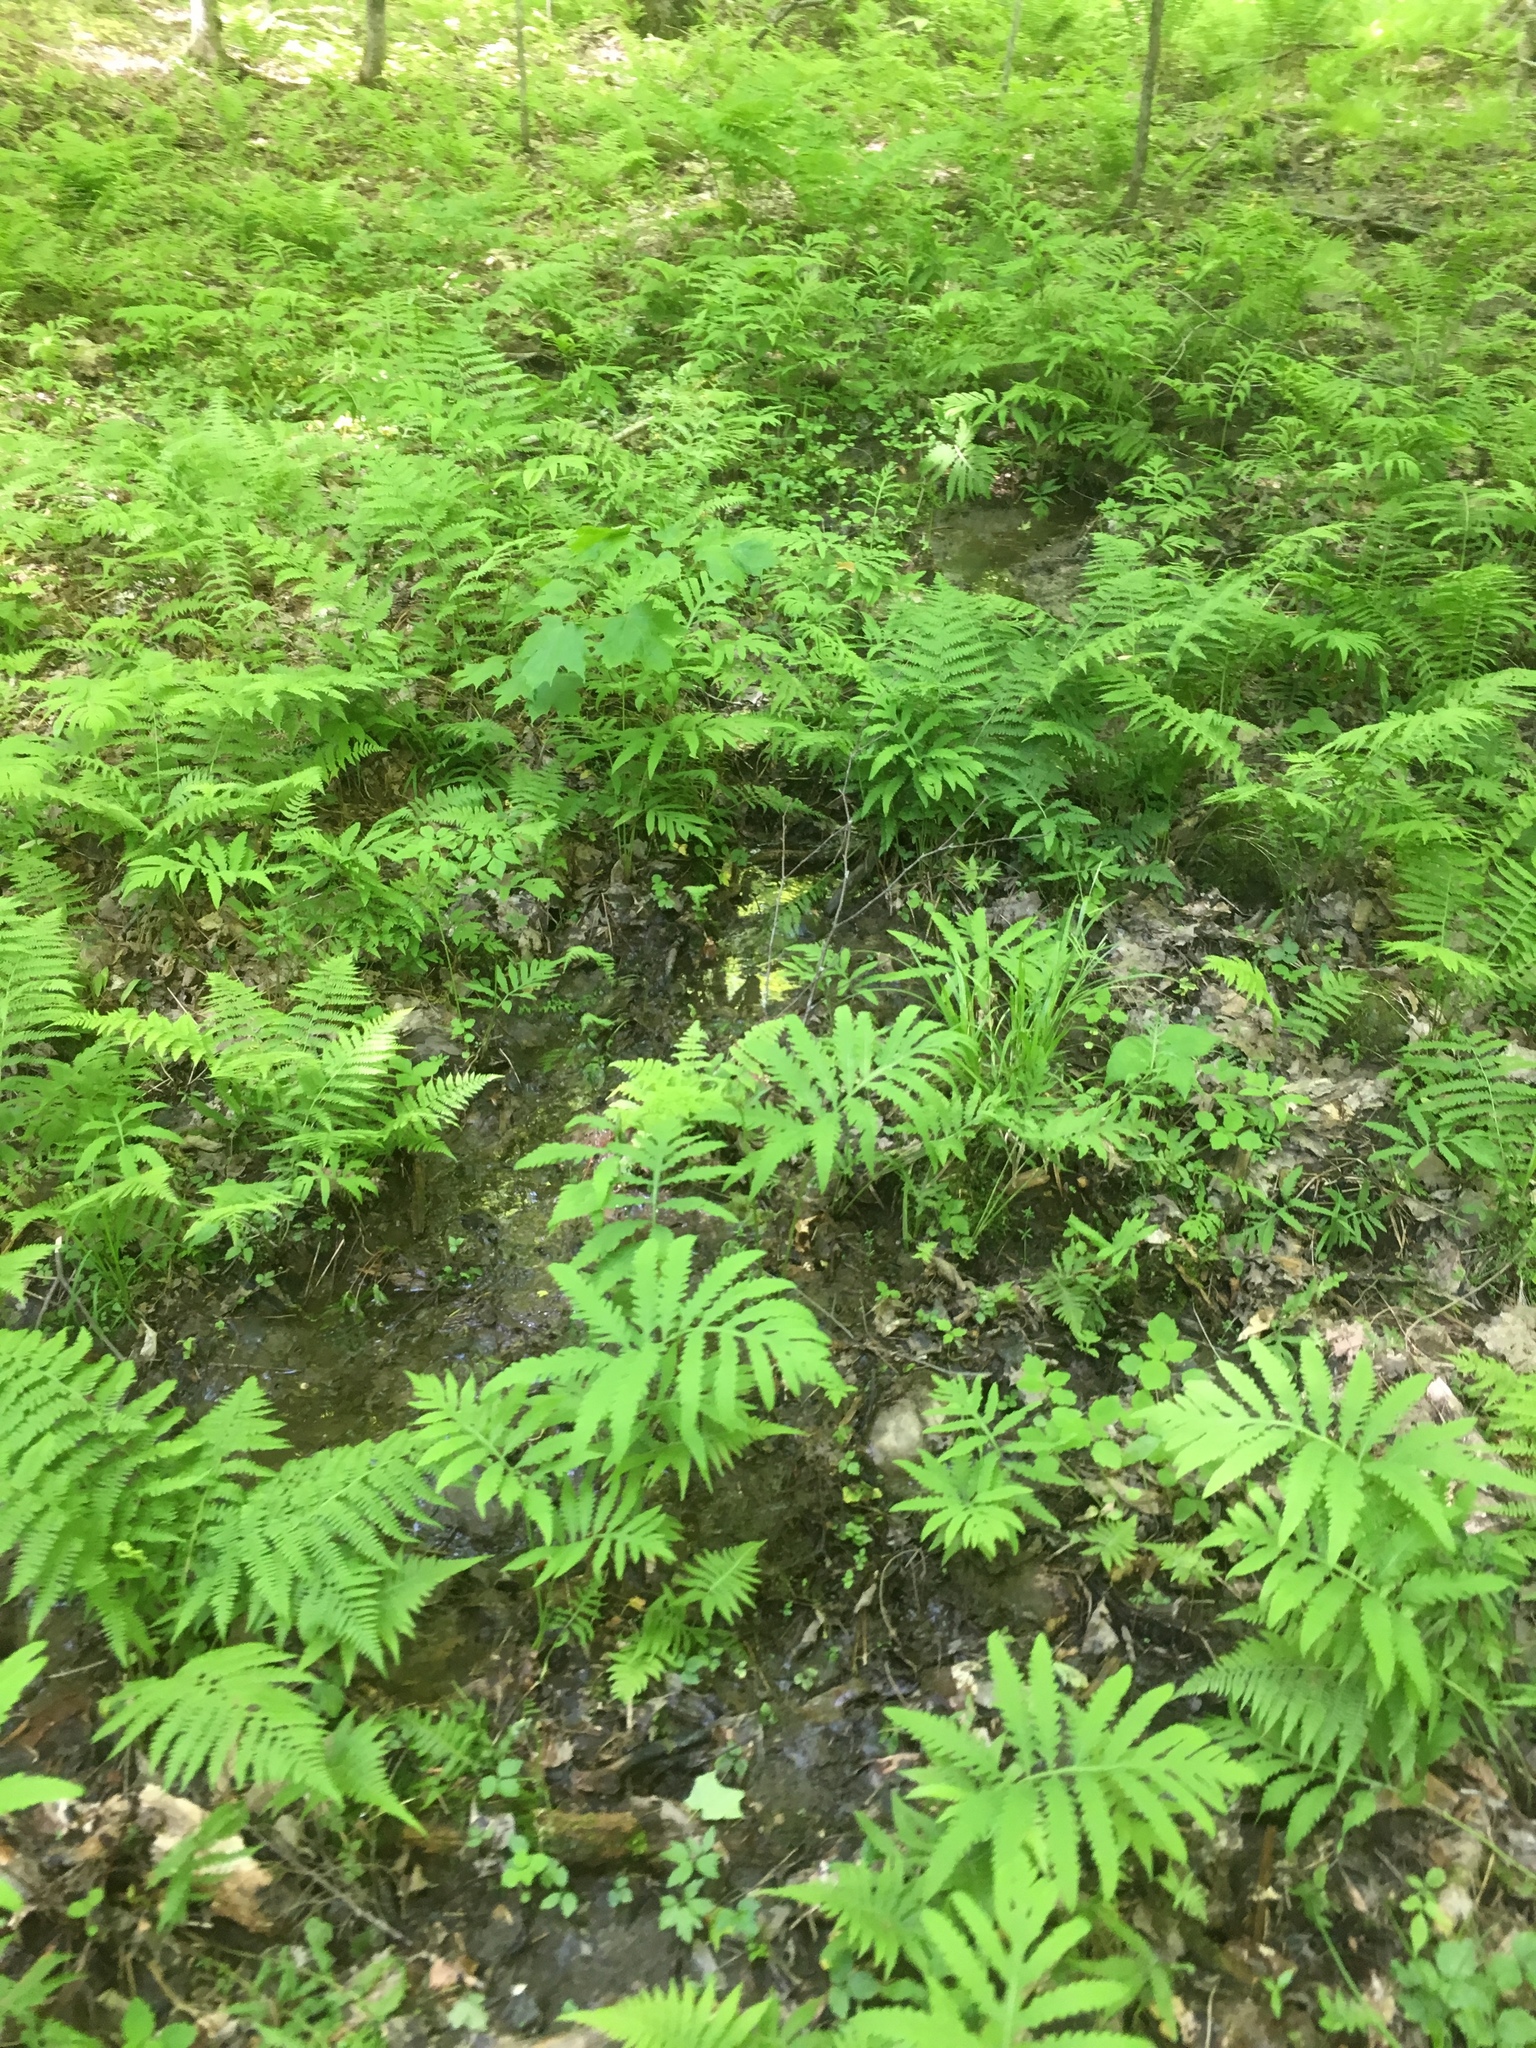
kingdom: Plantae
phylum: Tracheophyta
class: Polypodiopsida
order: Polypodiales
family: Onocleaceae
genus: Onoclea
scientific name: Onoclea sensibilis
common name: Sensitive fern
